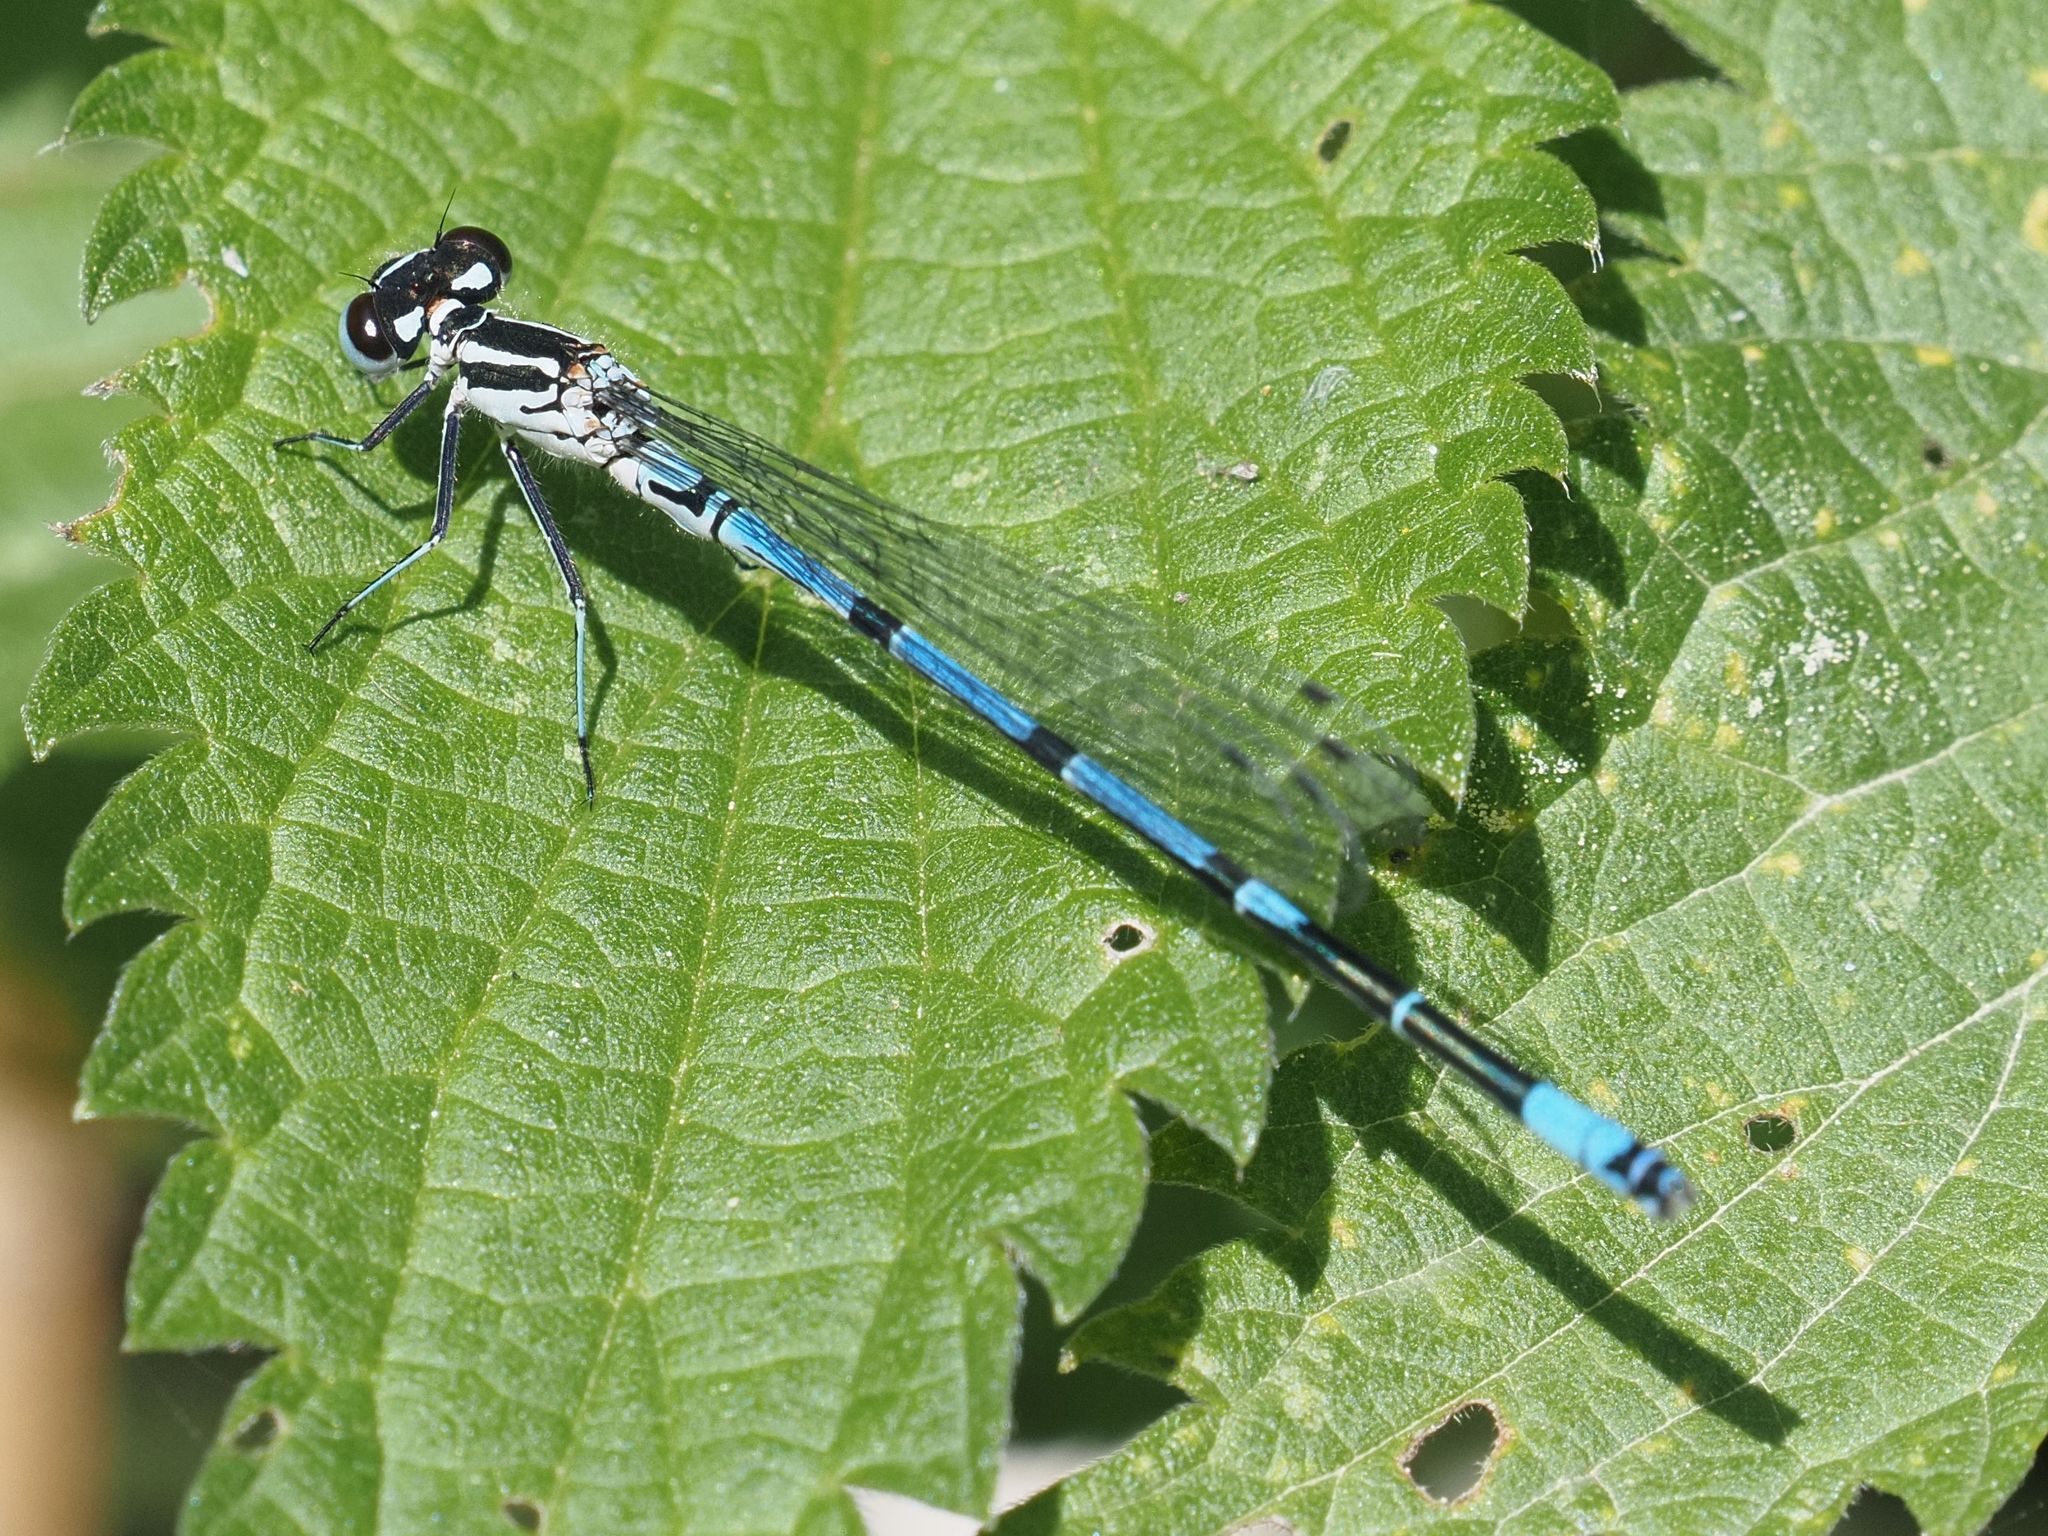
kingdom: Animalia
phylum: Arthropoda
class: Insecta
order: Odonata
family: Coenagrionidae
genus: Coenagrion
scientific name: Coenagrion puella
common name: Azure damselfly
